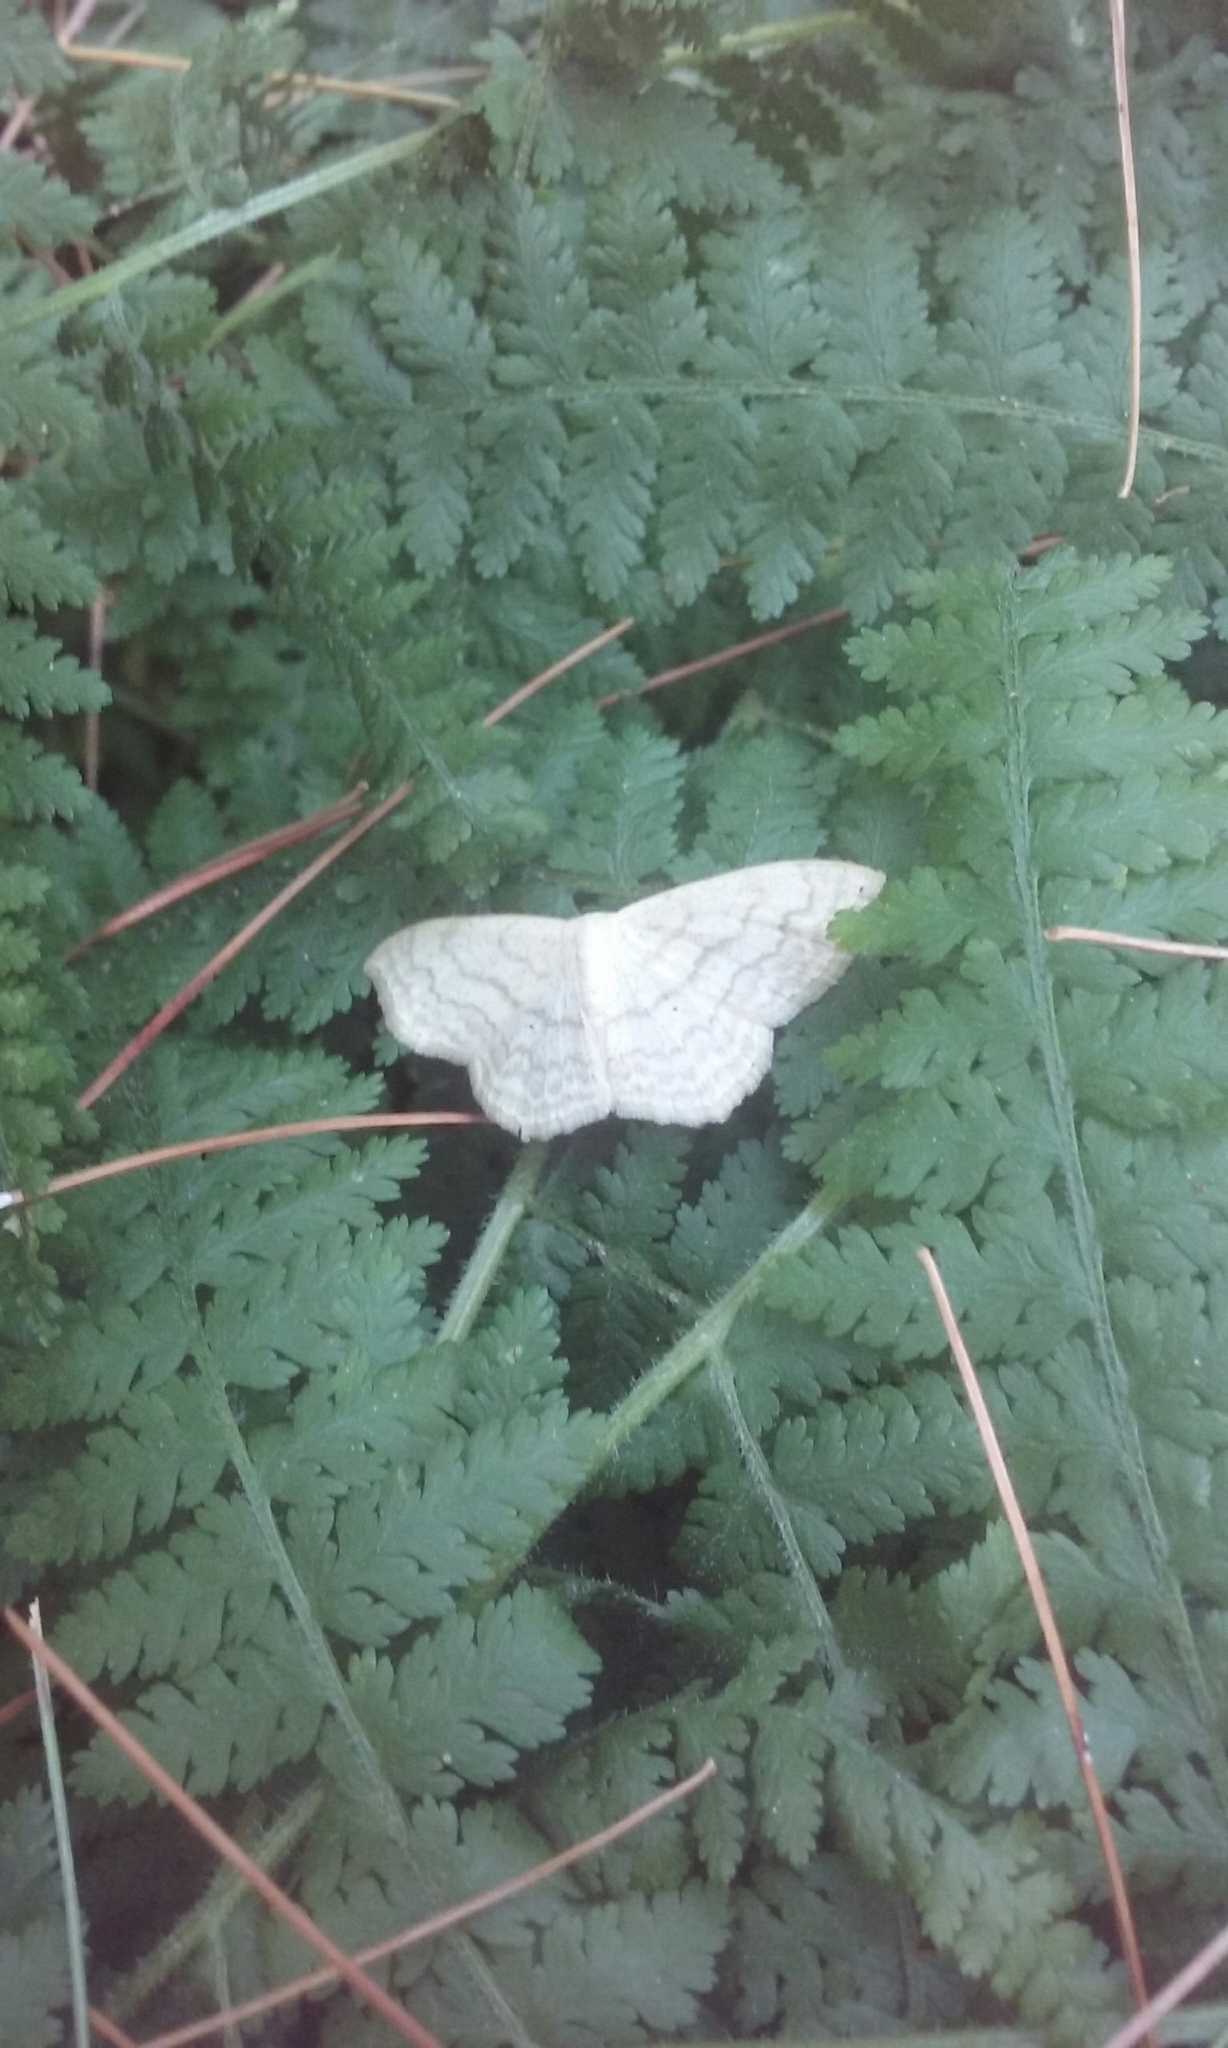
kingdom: Animalia
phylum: Arthropoda
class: Insecta
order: Lepidoptera
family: Geometridae
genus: Scopula
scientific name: Scopula limboundata
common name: Large lace border
